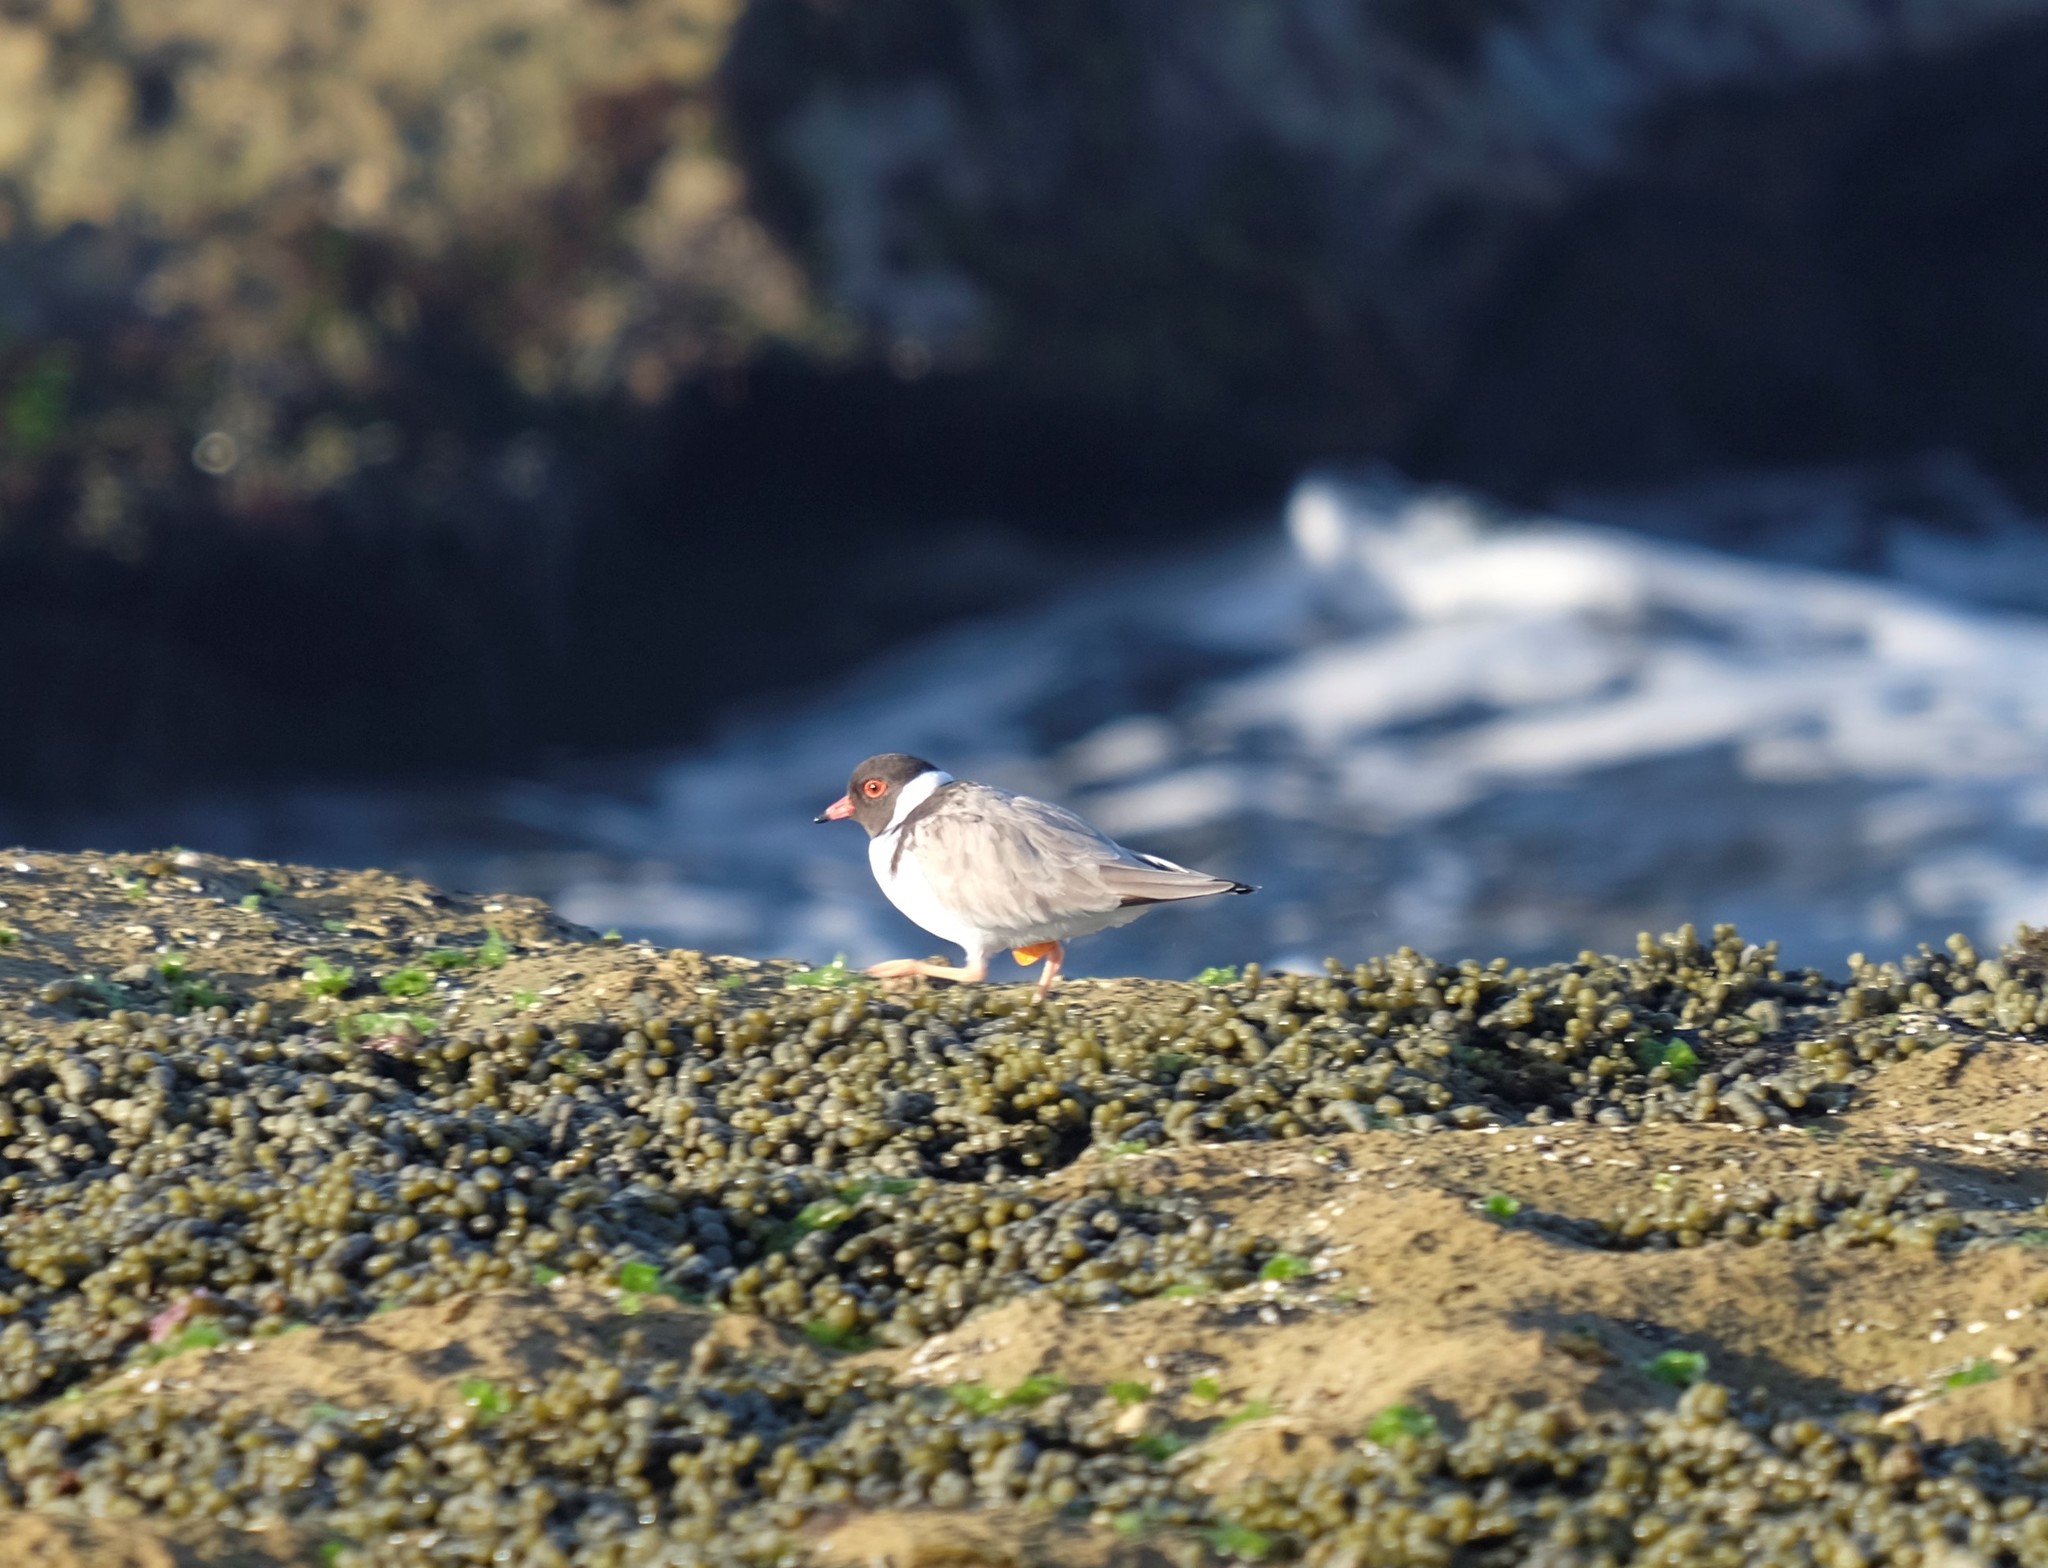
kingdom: Animalia
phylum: Chordata
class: Aves
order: Charadriiformes
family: Charadriidae
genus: Thinornis
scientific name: Thinornis cucullatus
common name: Hooded dotterel
